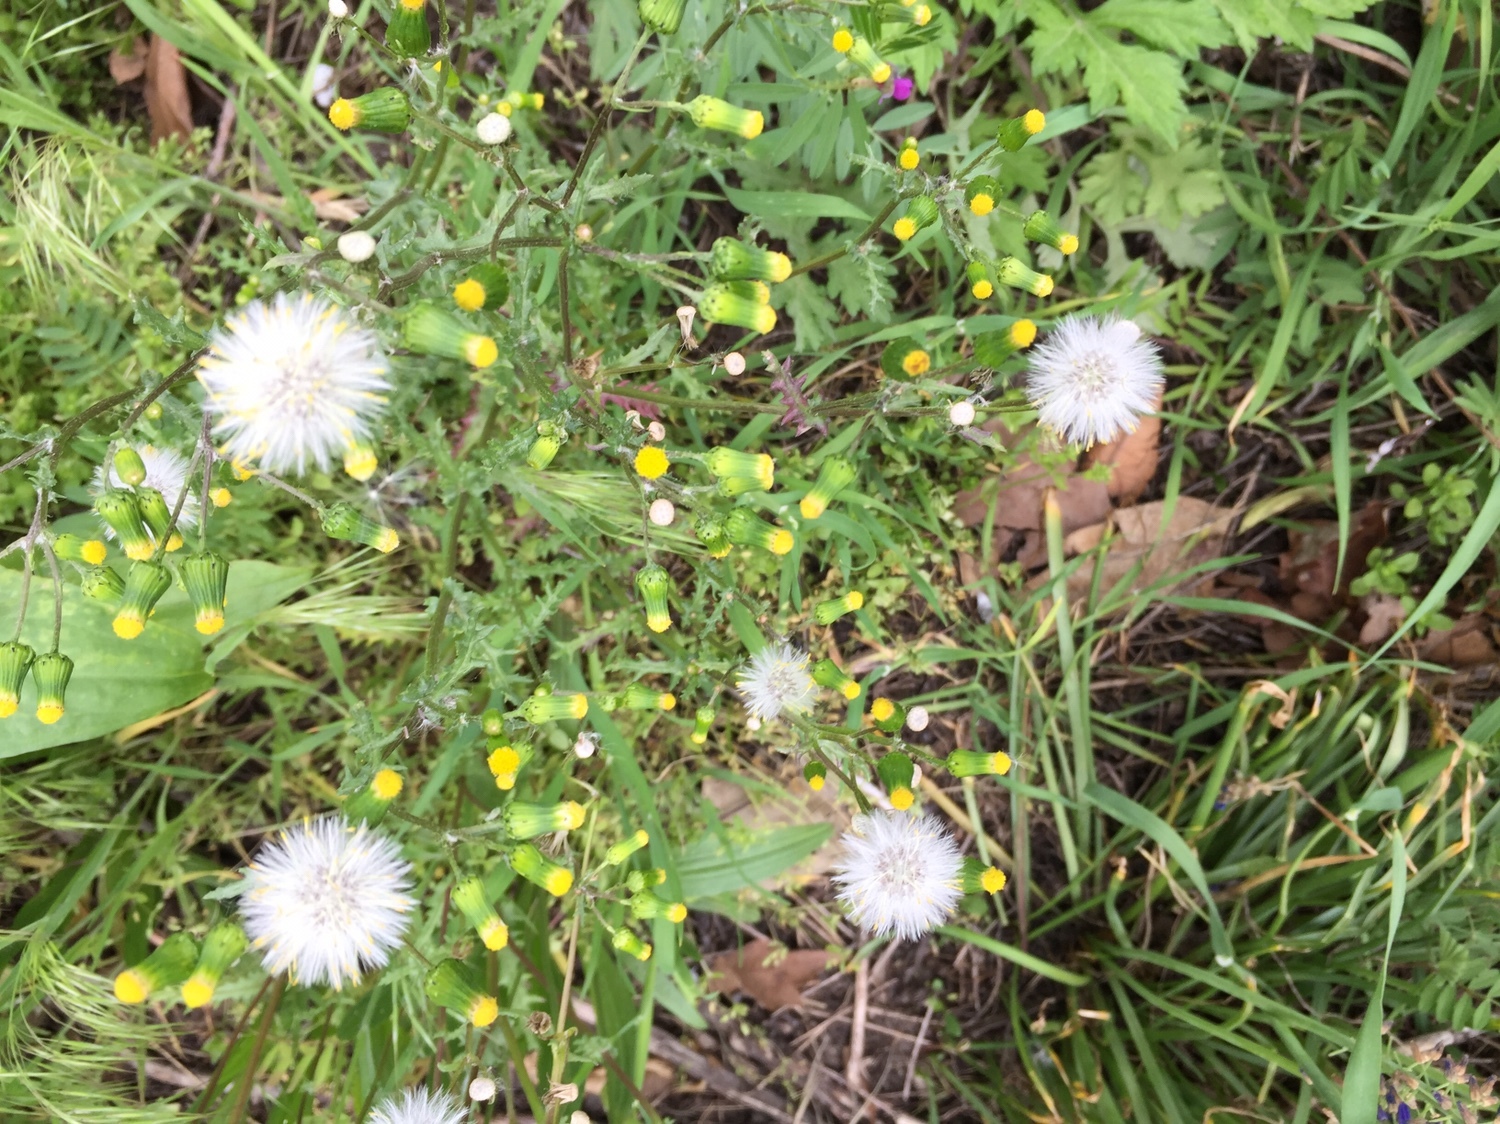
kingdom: Plantae
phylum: Tracheophyta
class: Magnoliopsida
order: Asterales
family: Asteraceae
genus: Senecio
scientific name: Senecio vulgaris
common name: Old-man-in-the-spring
